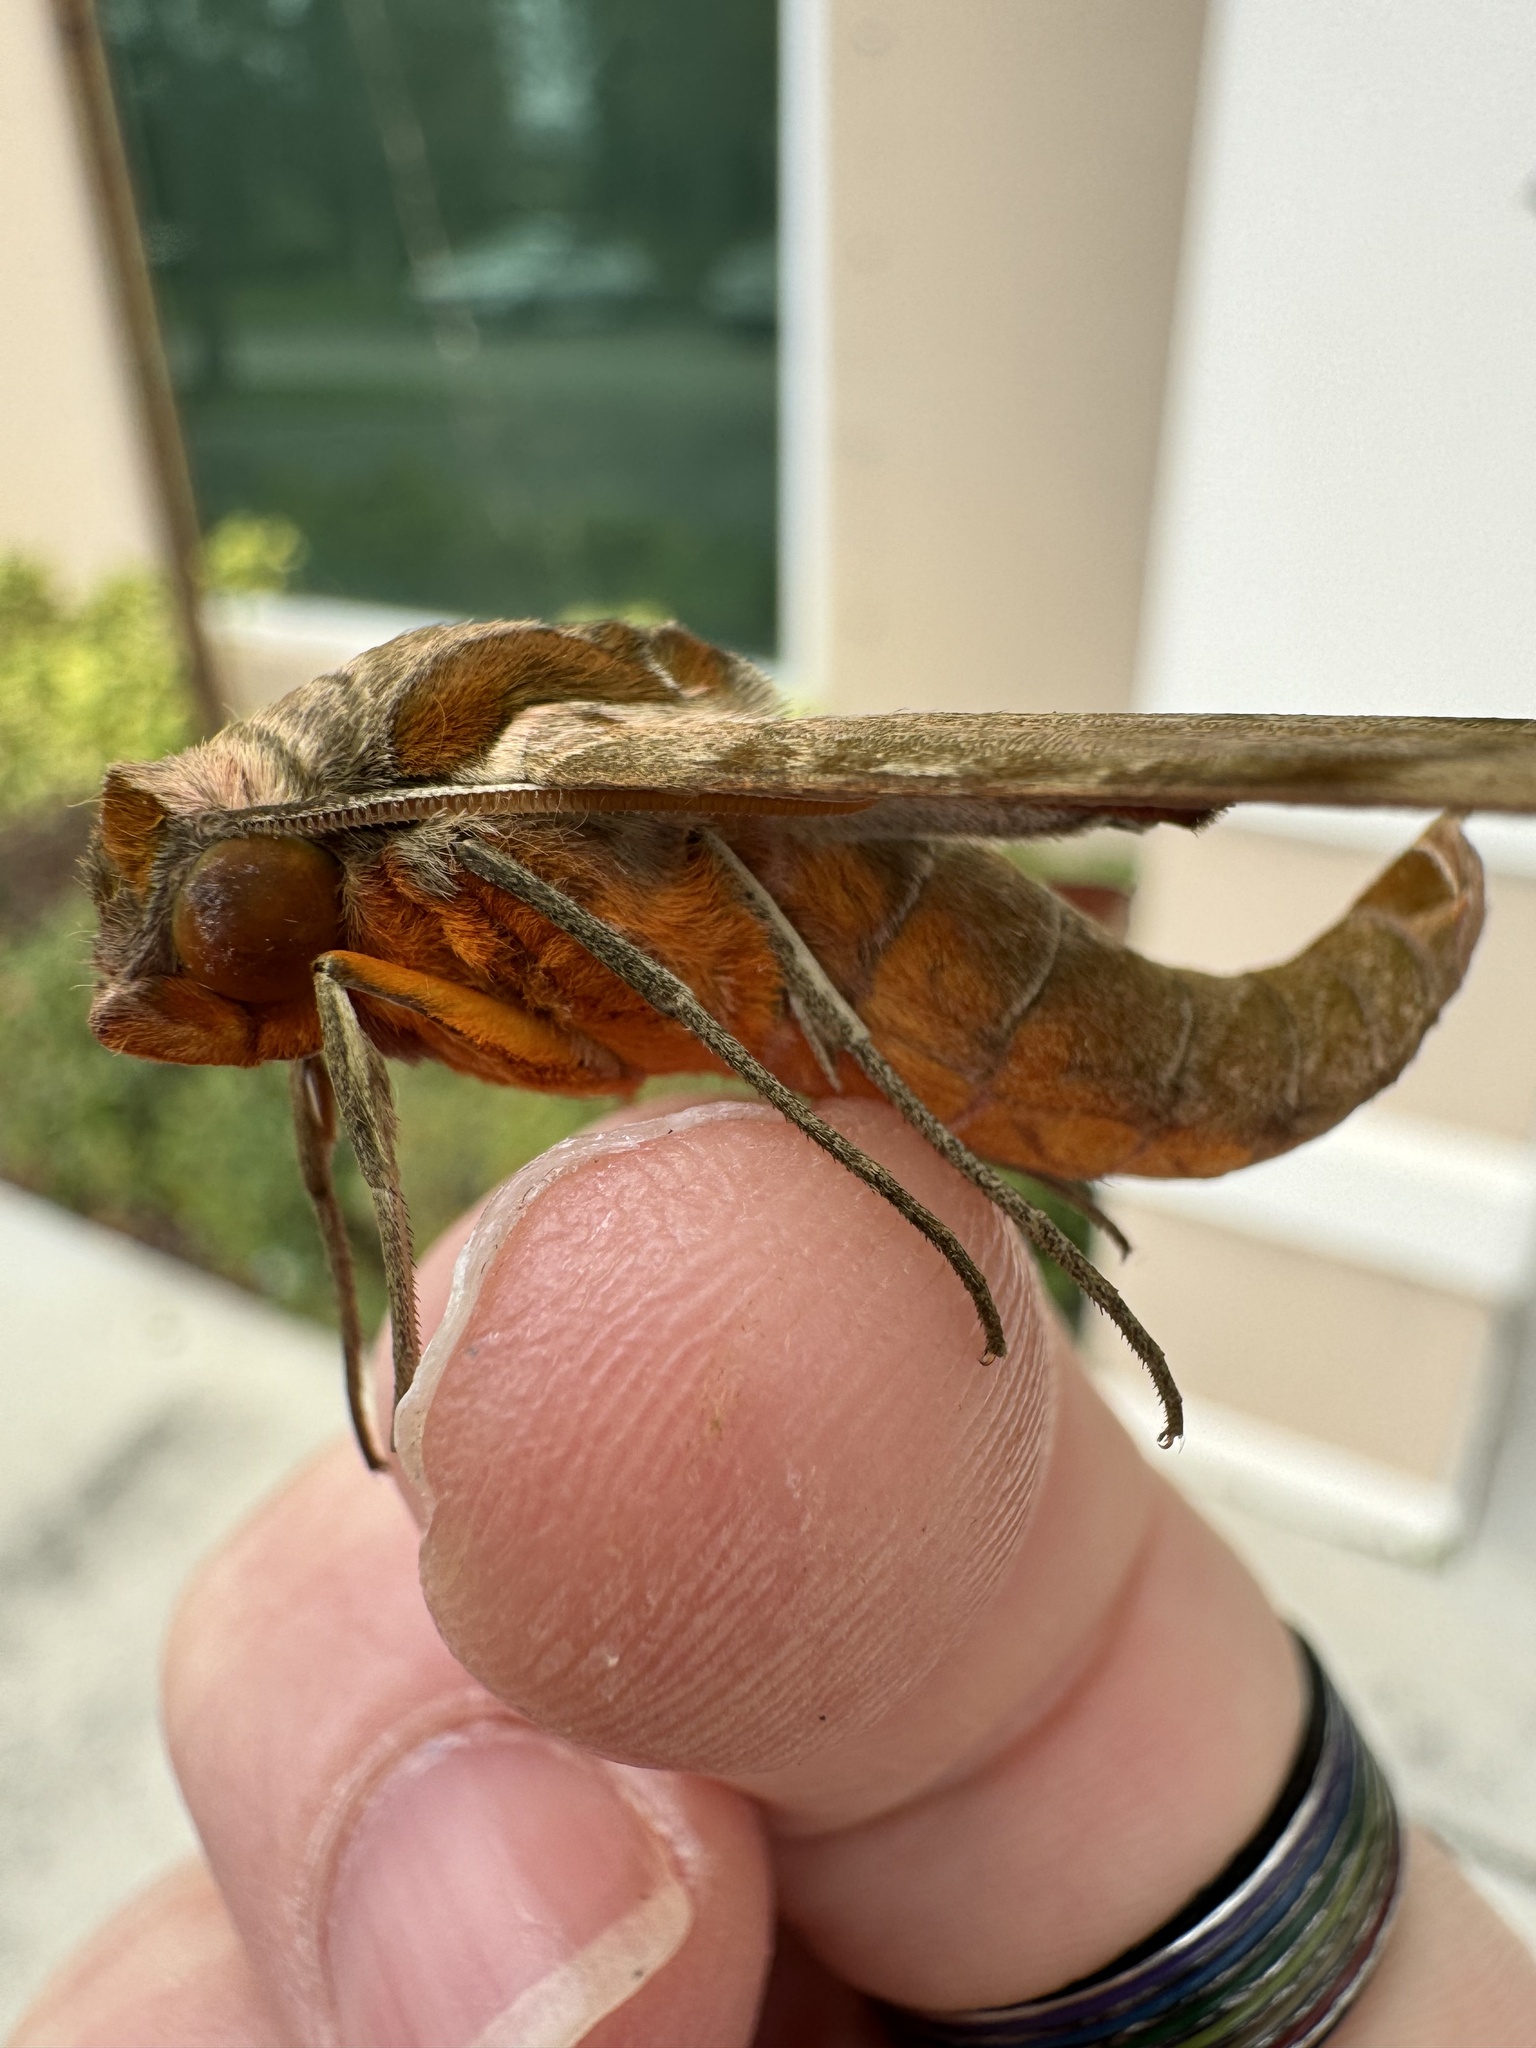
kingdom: Animalia
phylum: Arthropoda
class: Insecta
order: Lepidoptera
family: Sphingidae
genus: Protambulyx
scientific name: Protambulyx strigilis
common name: Streaked sphinx
